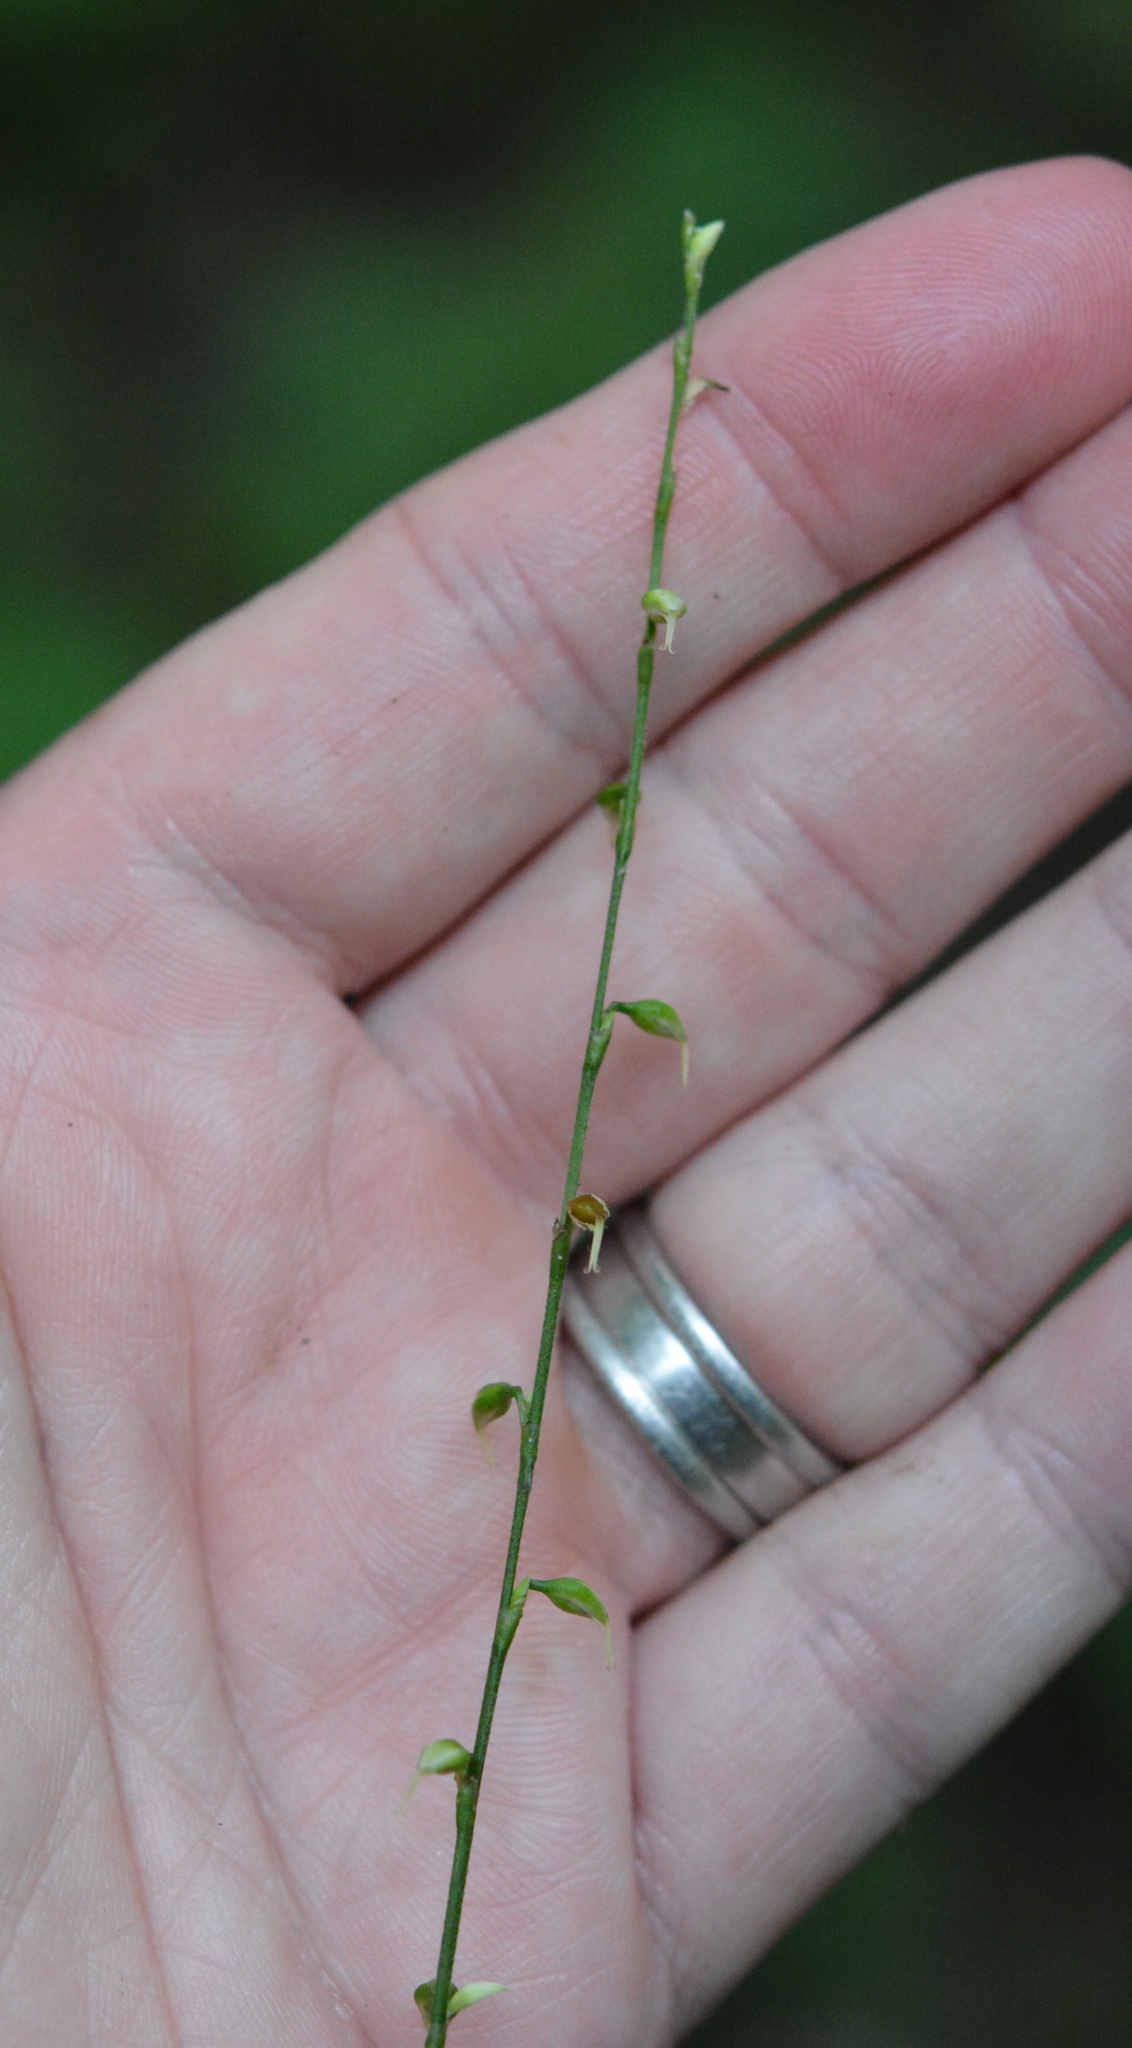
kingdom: Plantae
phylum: Tracheophyta
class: Magnoliopsida
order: Caryophyllales
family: Polygonaceae
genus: Persicaria
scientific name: Persicaria virginiana
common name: Jumpseed
